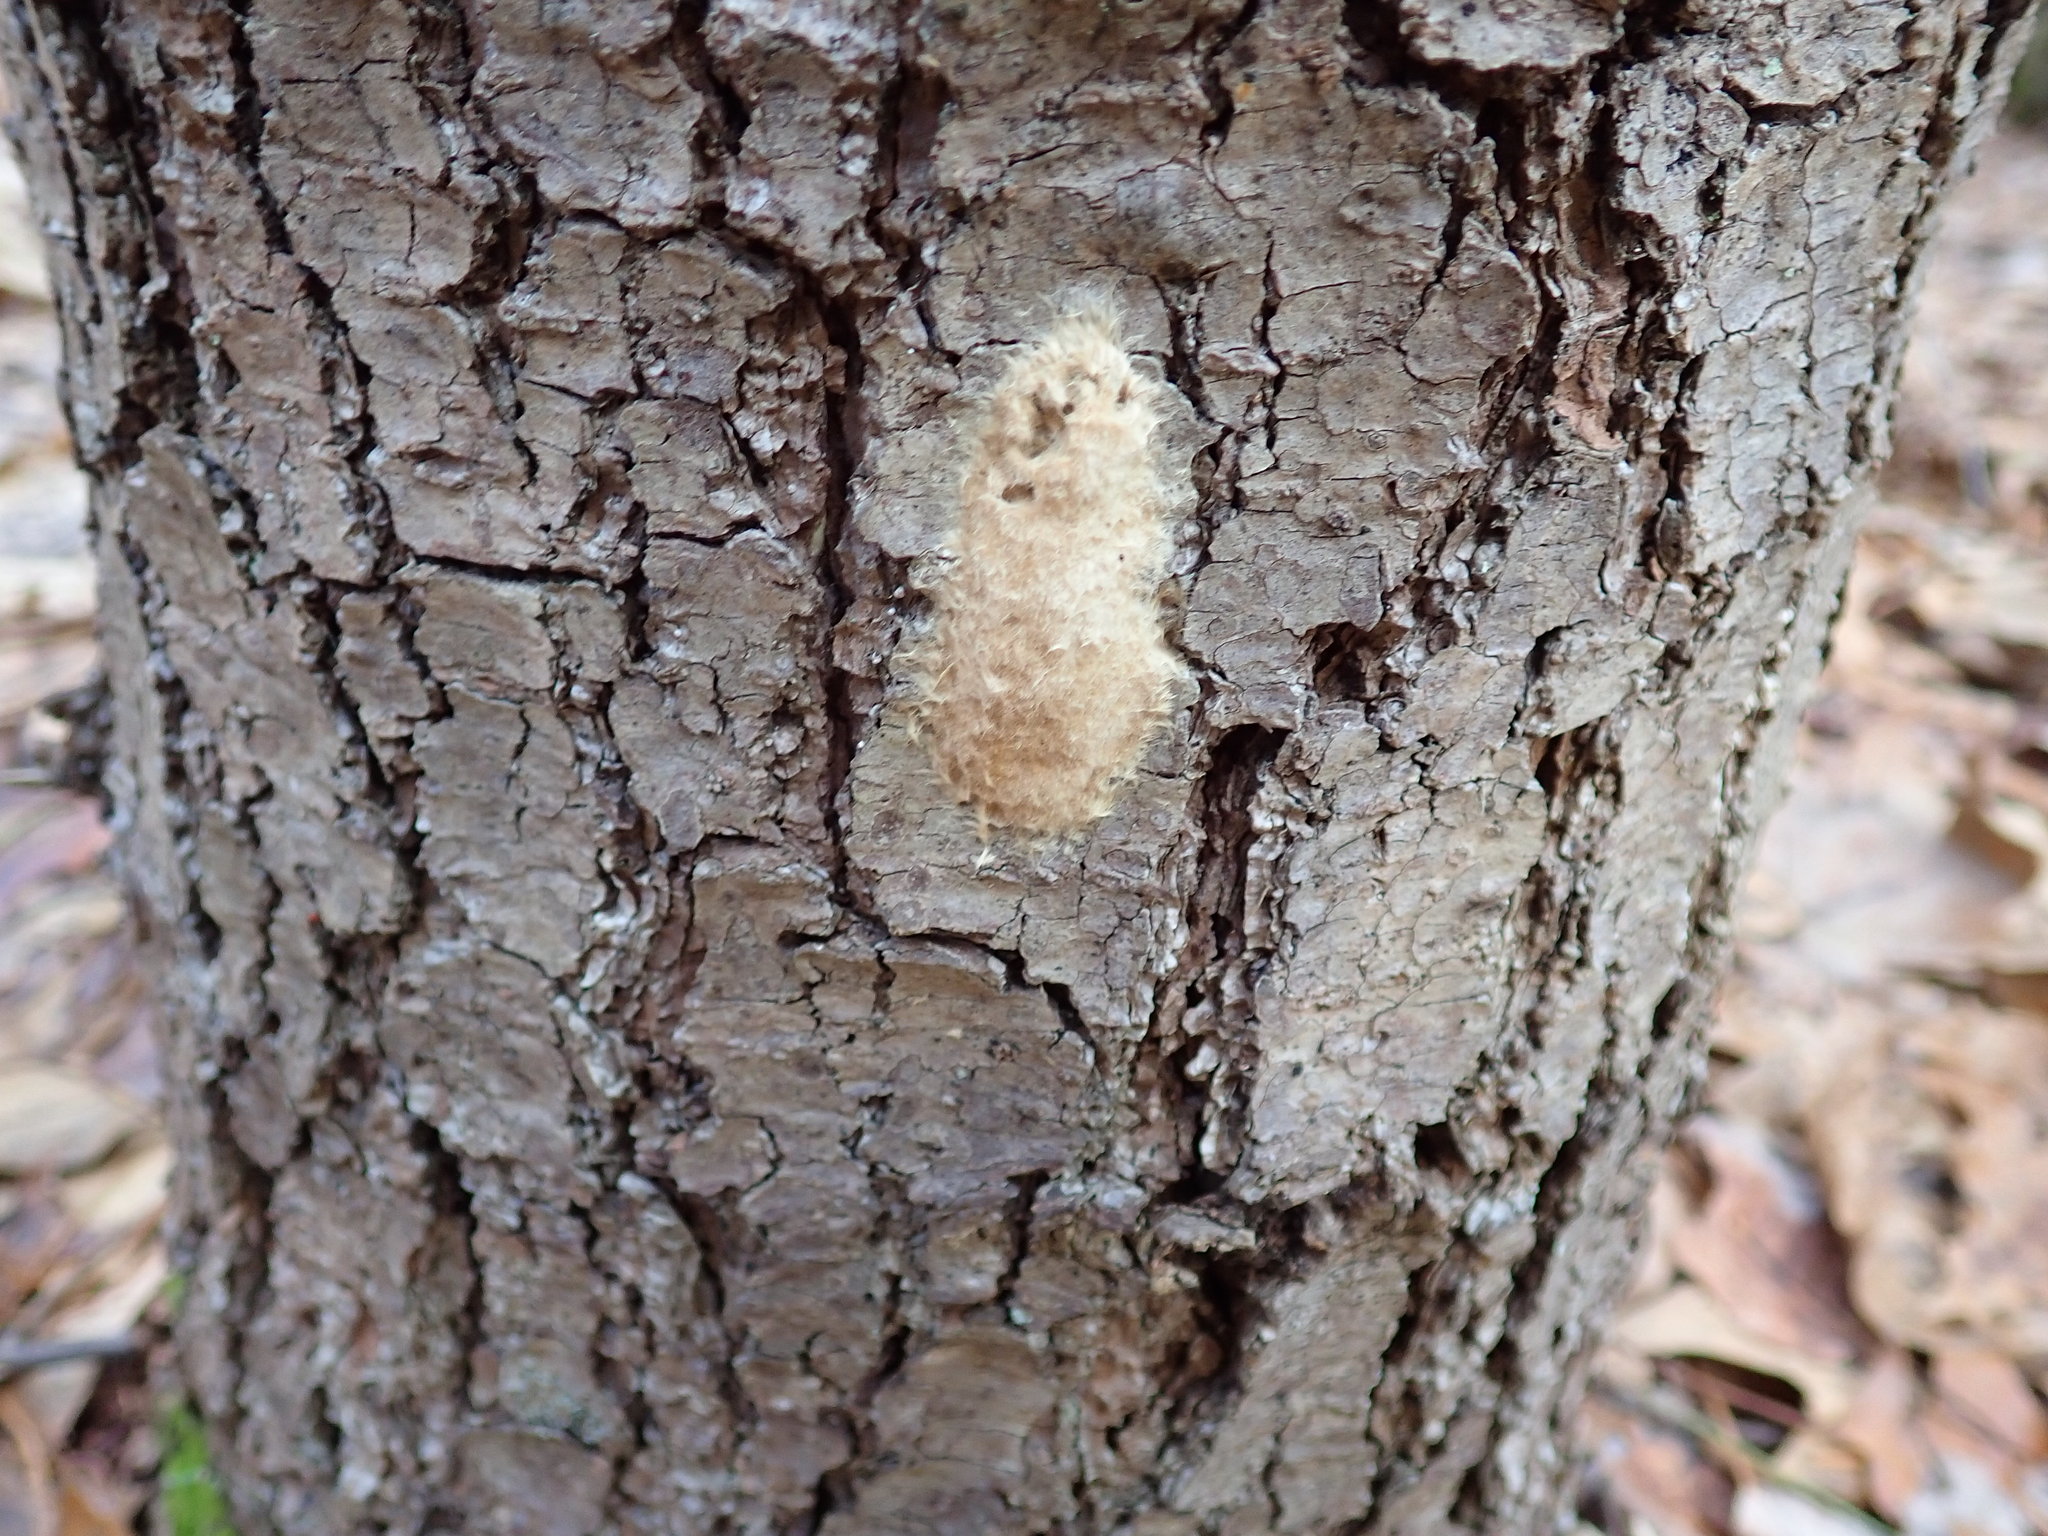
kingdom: Animalia
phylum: Arthropoda
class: Insecta
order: Lepidoptera
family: Erebidae
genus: Lymantria
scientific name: Lymantria dispar
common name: Gypsy moth
